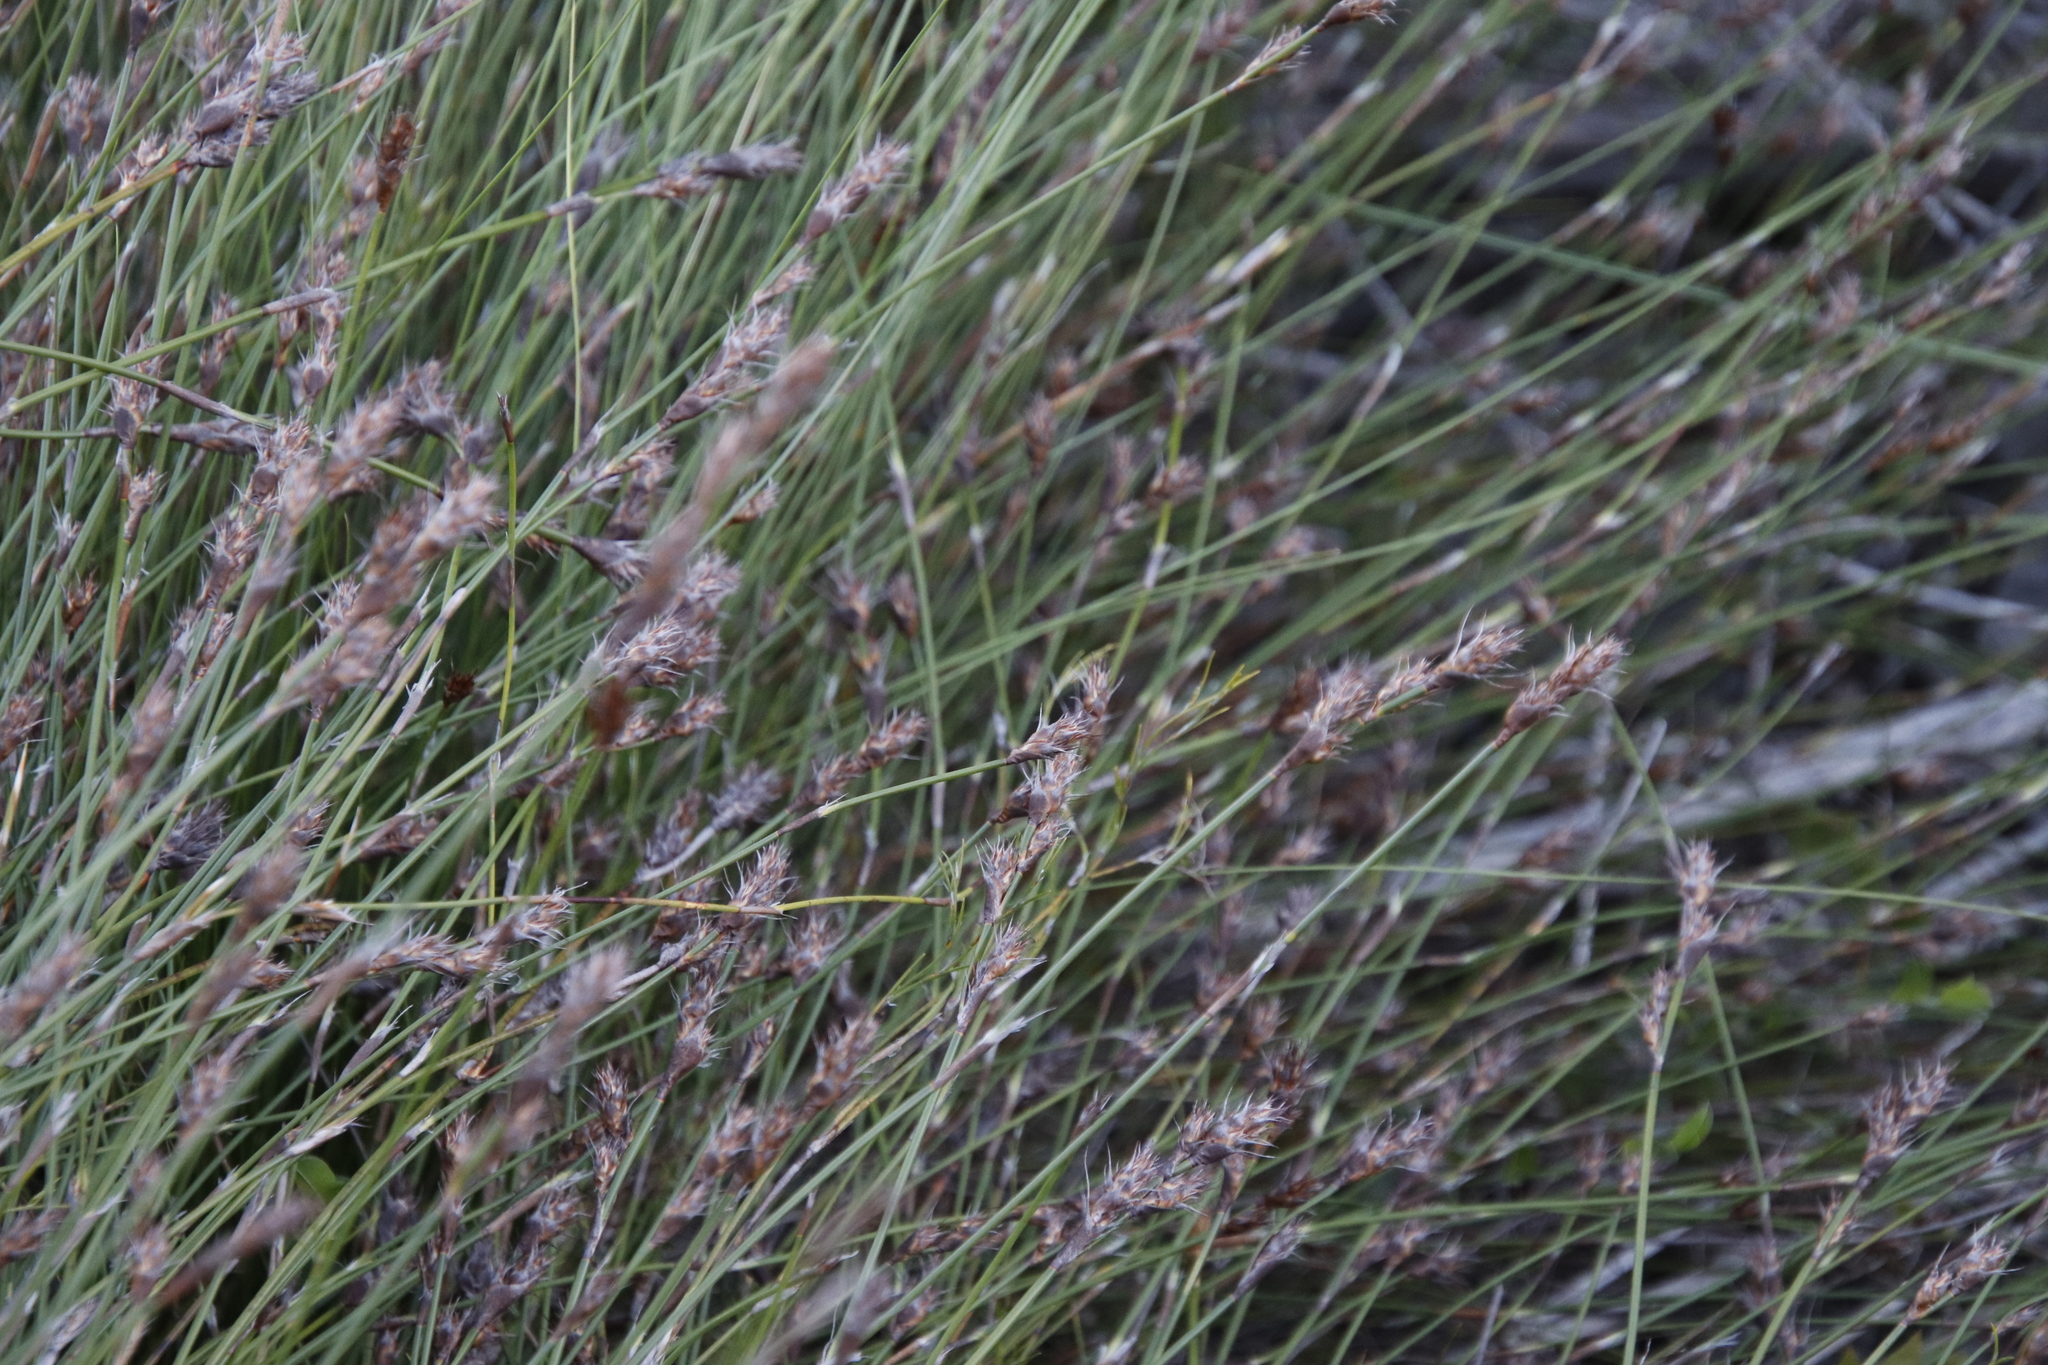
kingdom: Plantae
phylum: Tracheophyta
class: Liliopsida
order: Poales
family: Restionaceae
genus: Restio
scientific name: Restio capensis
